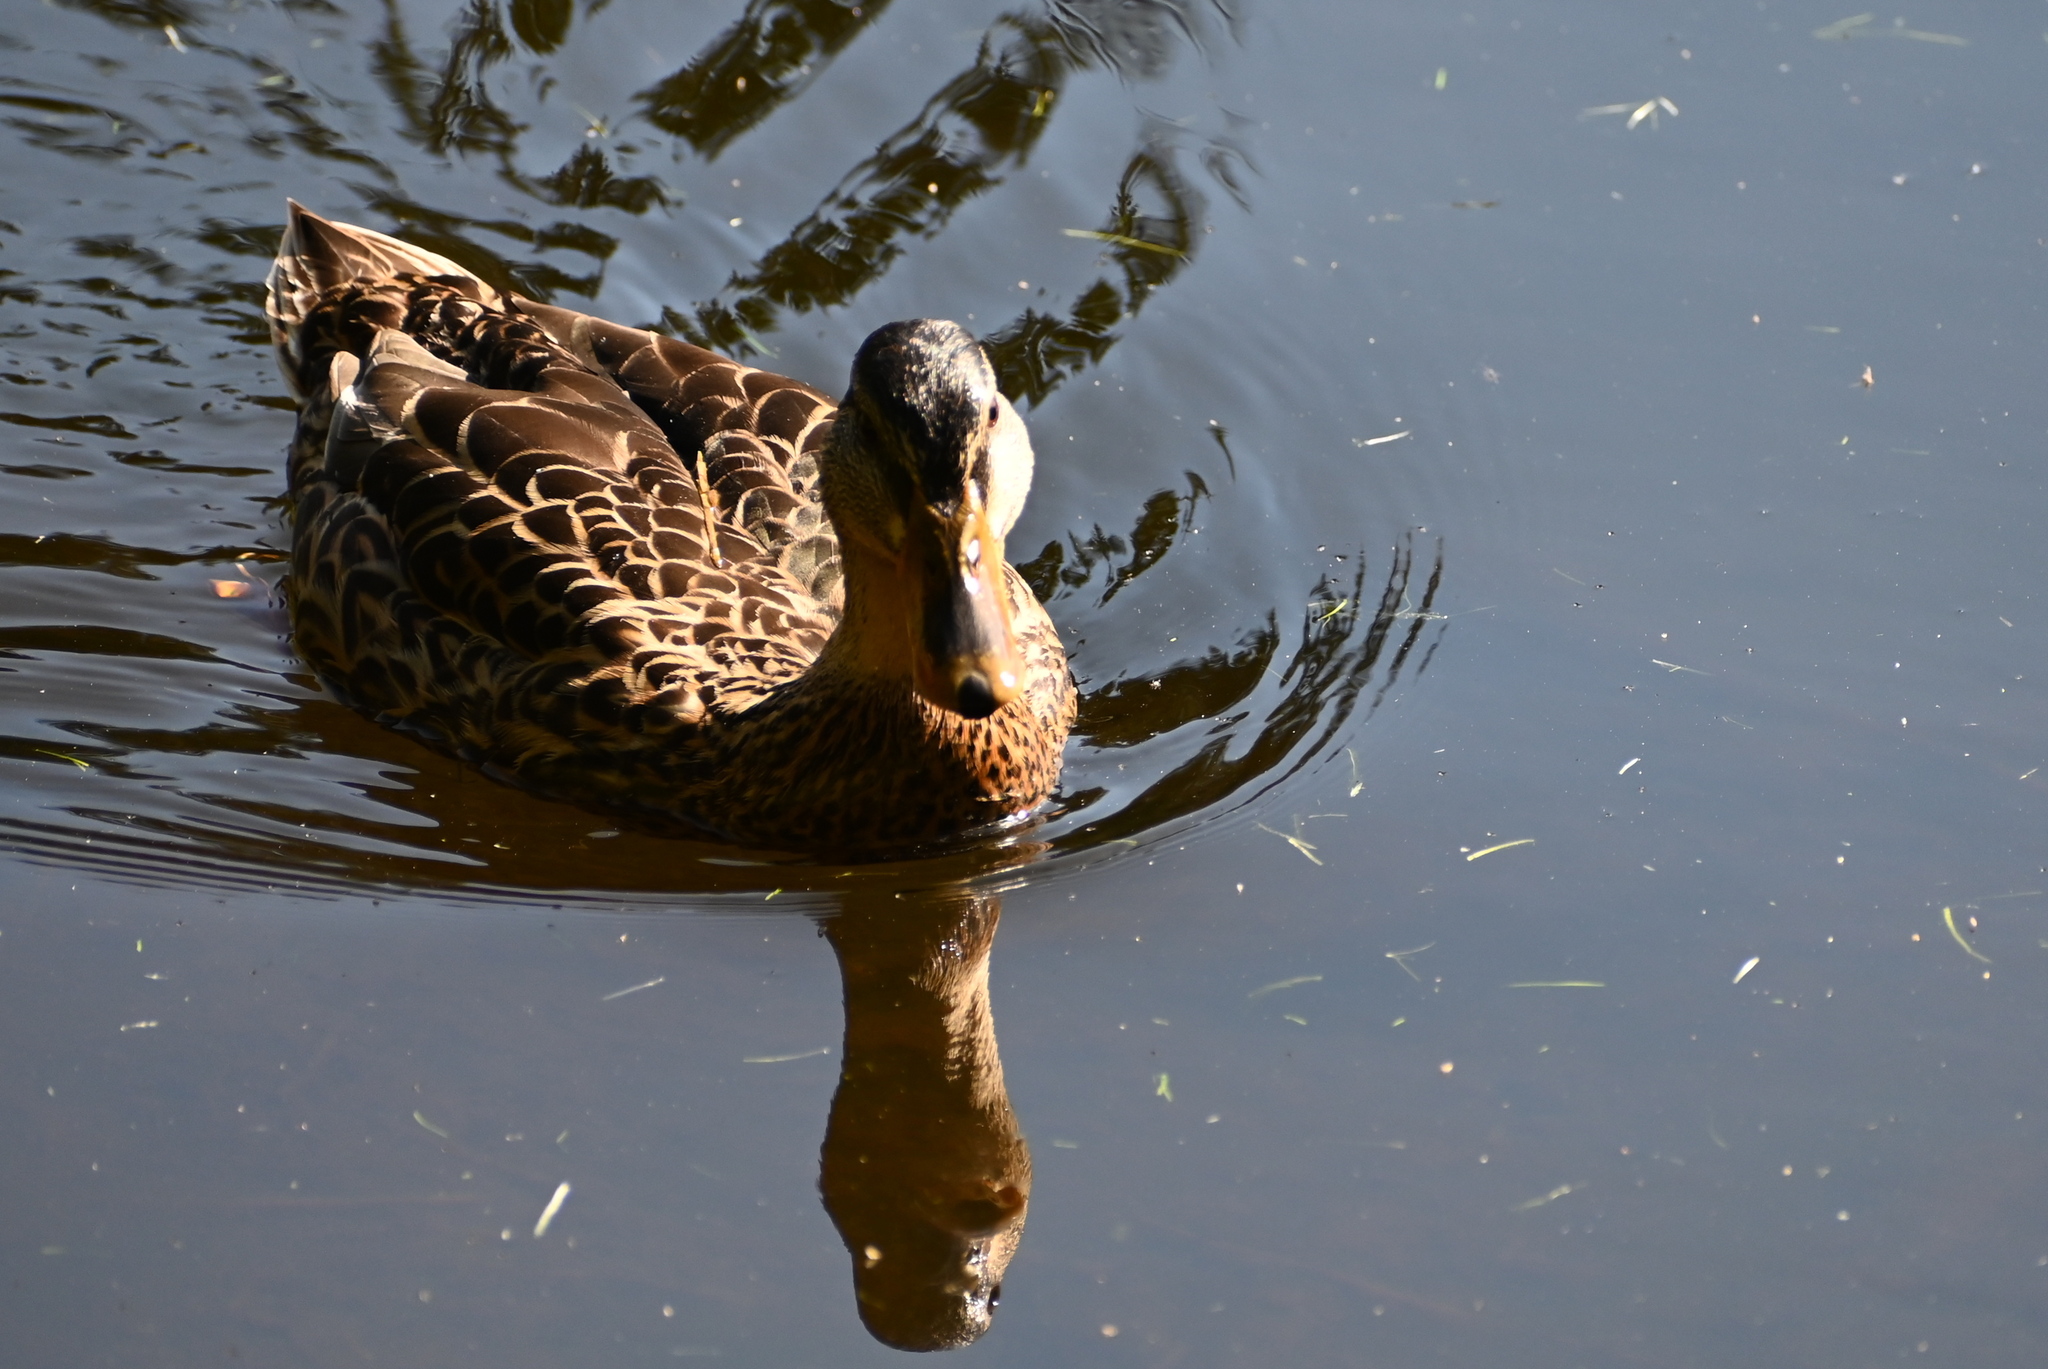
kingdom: Animalia
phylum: Chordata
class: Aves
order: Anseriformes
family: Anatidae
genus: Anas
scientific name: Anas platyrhynchos
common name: Mallard
